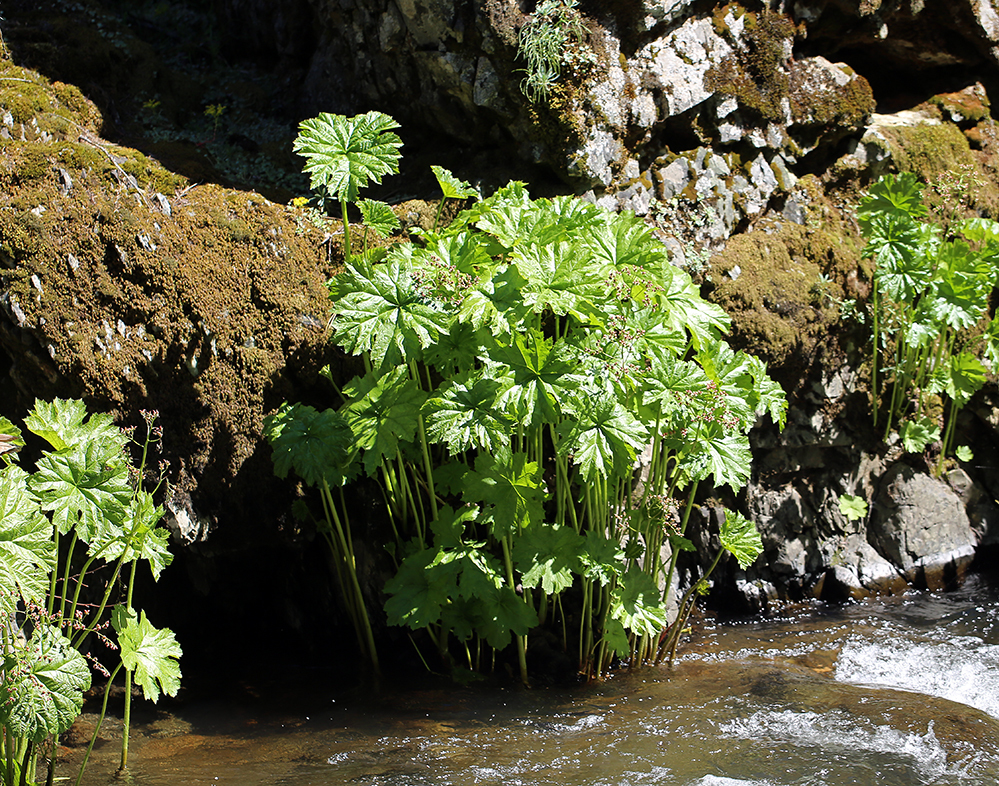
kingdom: Plantae
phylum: Tracheophyta
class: Magnoliopsida
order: Saxifragales
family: Saxifragaceae
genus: Darmera
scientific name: Darmera peltata
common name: Indian-rhubarb
